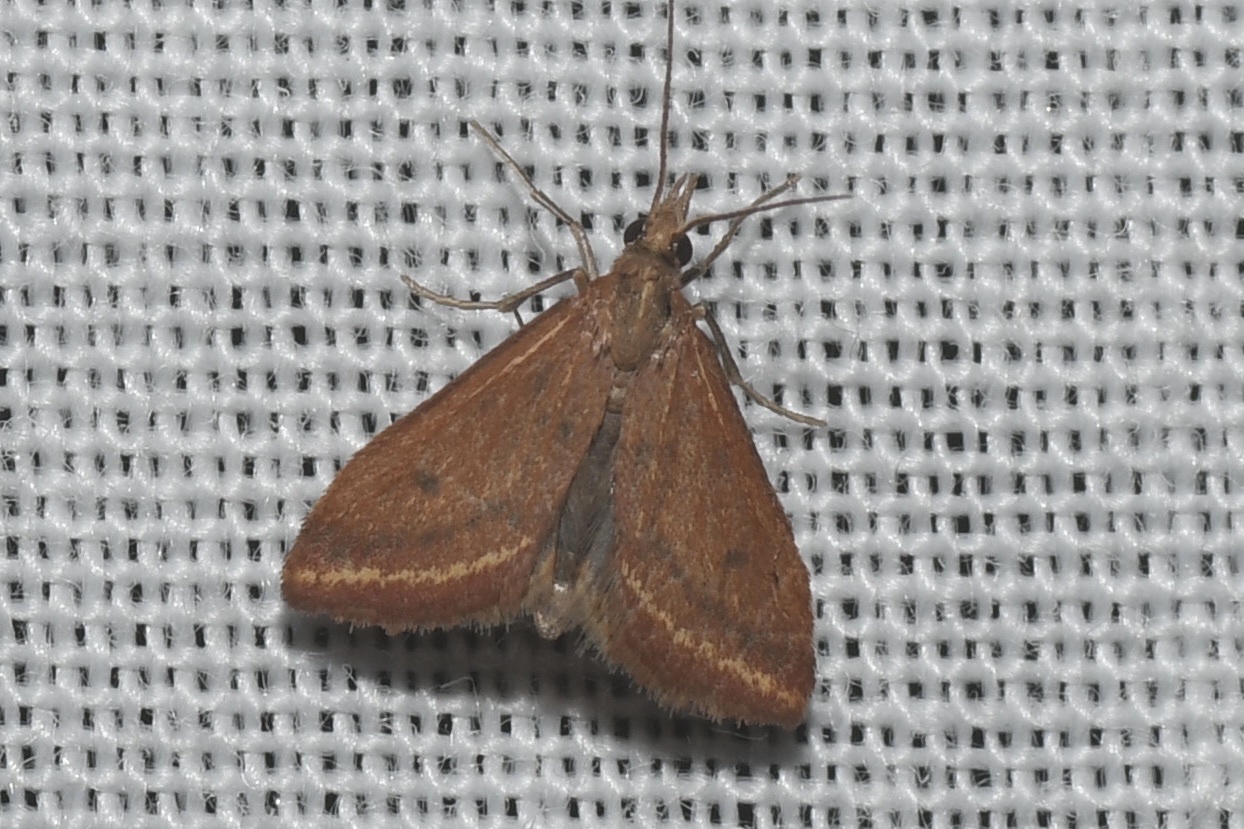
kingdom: Animalia
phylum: Arthropoda
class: Insecta
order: Lepidoptera
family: Crambidae
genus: Microtheoris
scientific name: Microtheoris ophionalis
